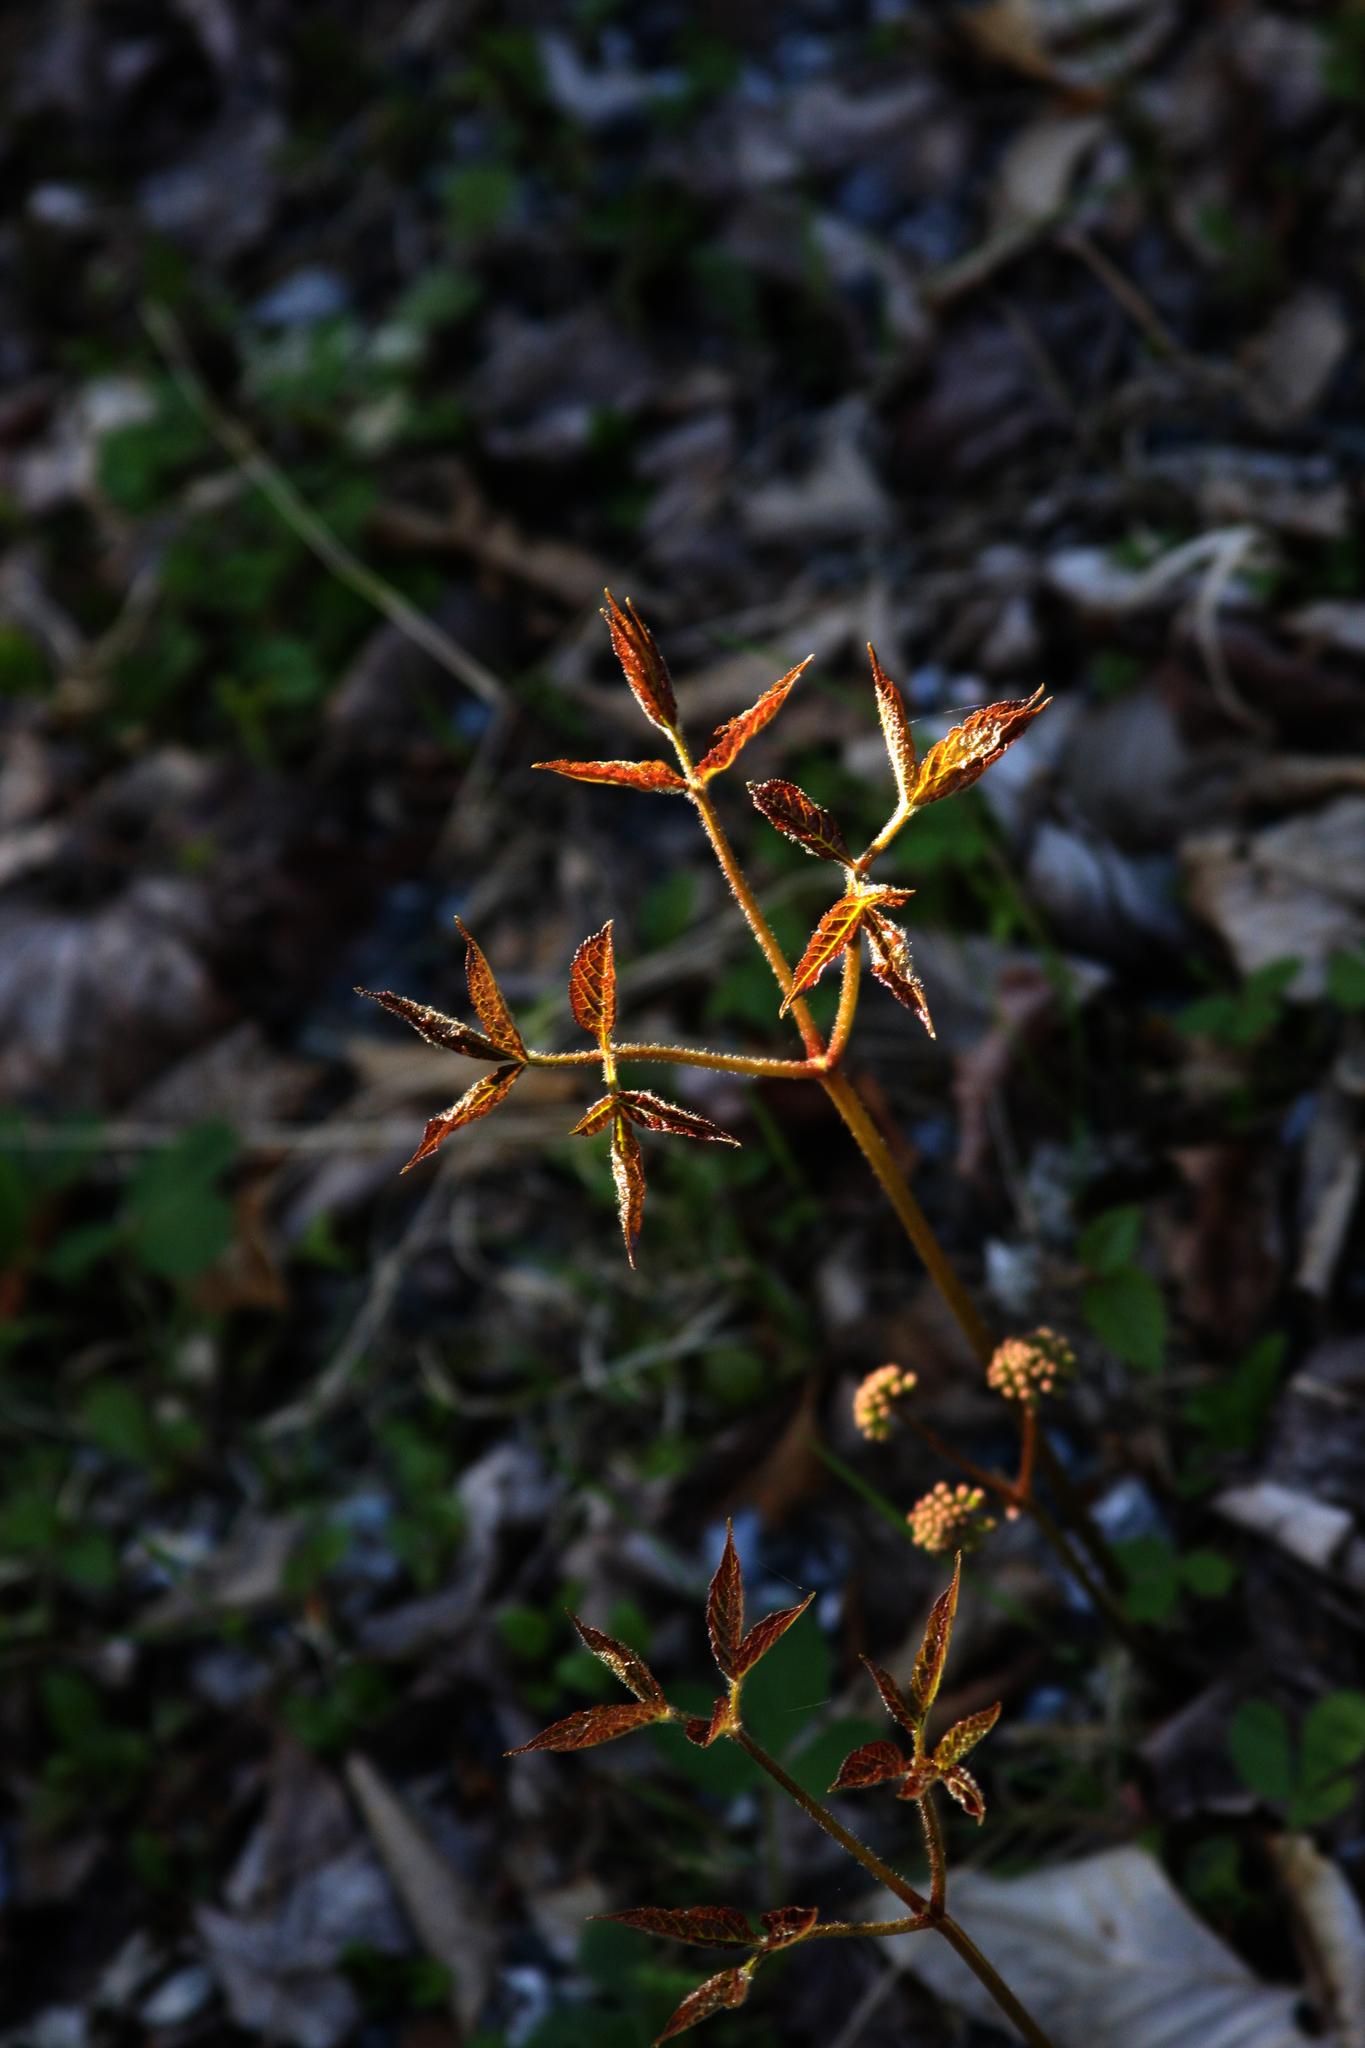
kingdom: Plantae
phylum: Tracheophyta
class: Magnoliopsida
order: Apiales
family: Araliaceae
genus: Aralia
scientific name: Aralia nudicaulis
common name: Wild sarsaparilla
